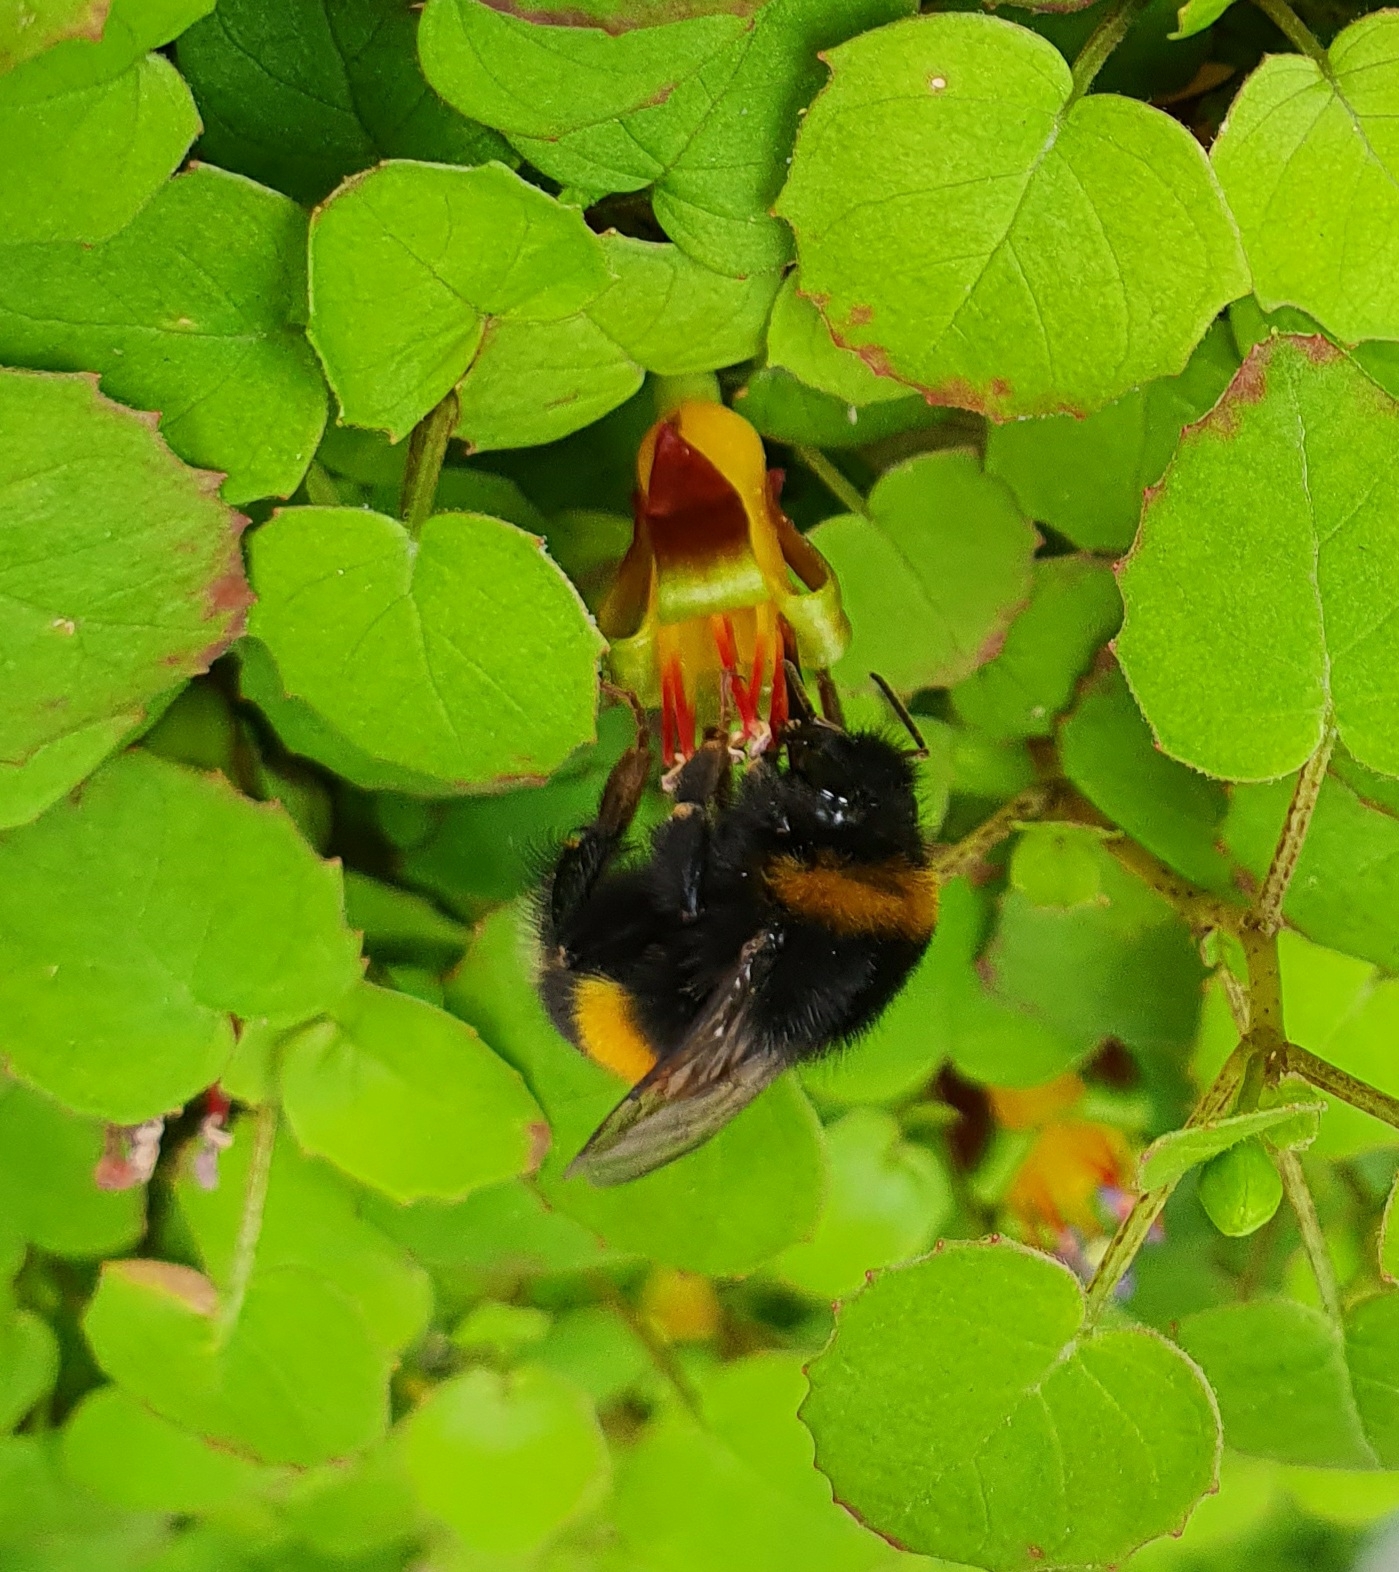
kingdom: Animalia
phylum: Arthropoda
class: Insecta
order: Hymenoptera
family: Apidae
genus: Bombus
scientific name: Bombus terrestris
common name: Buff-tailed bumblebee
